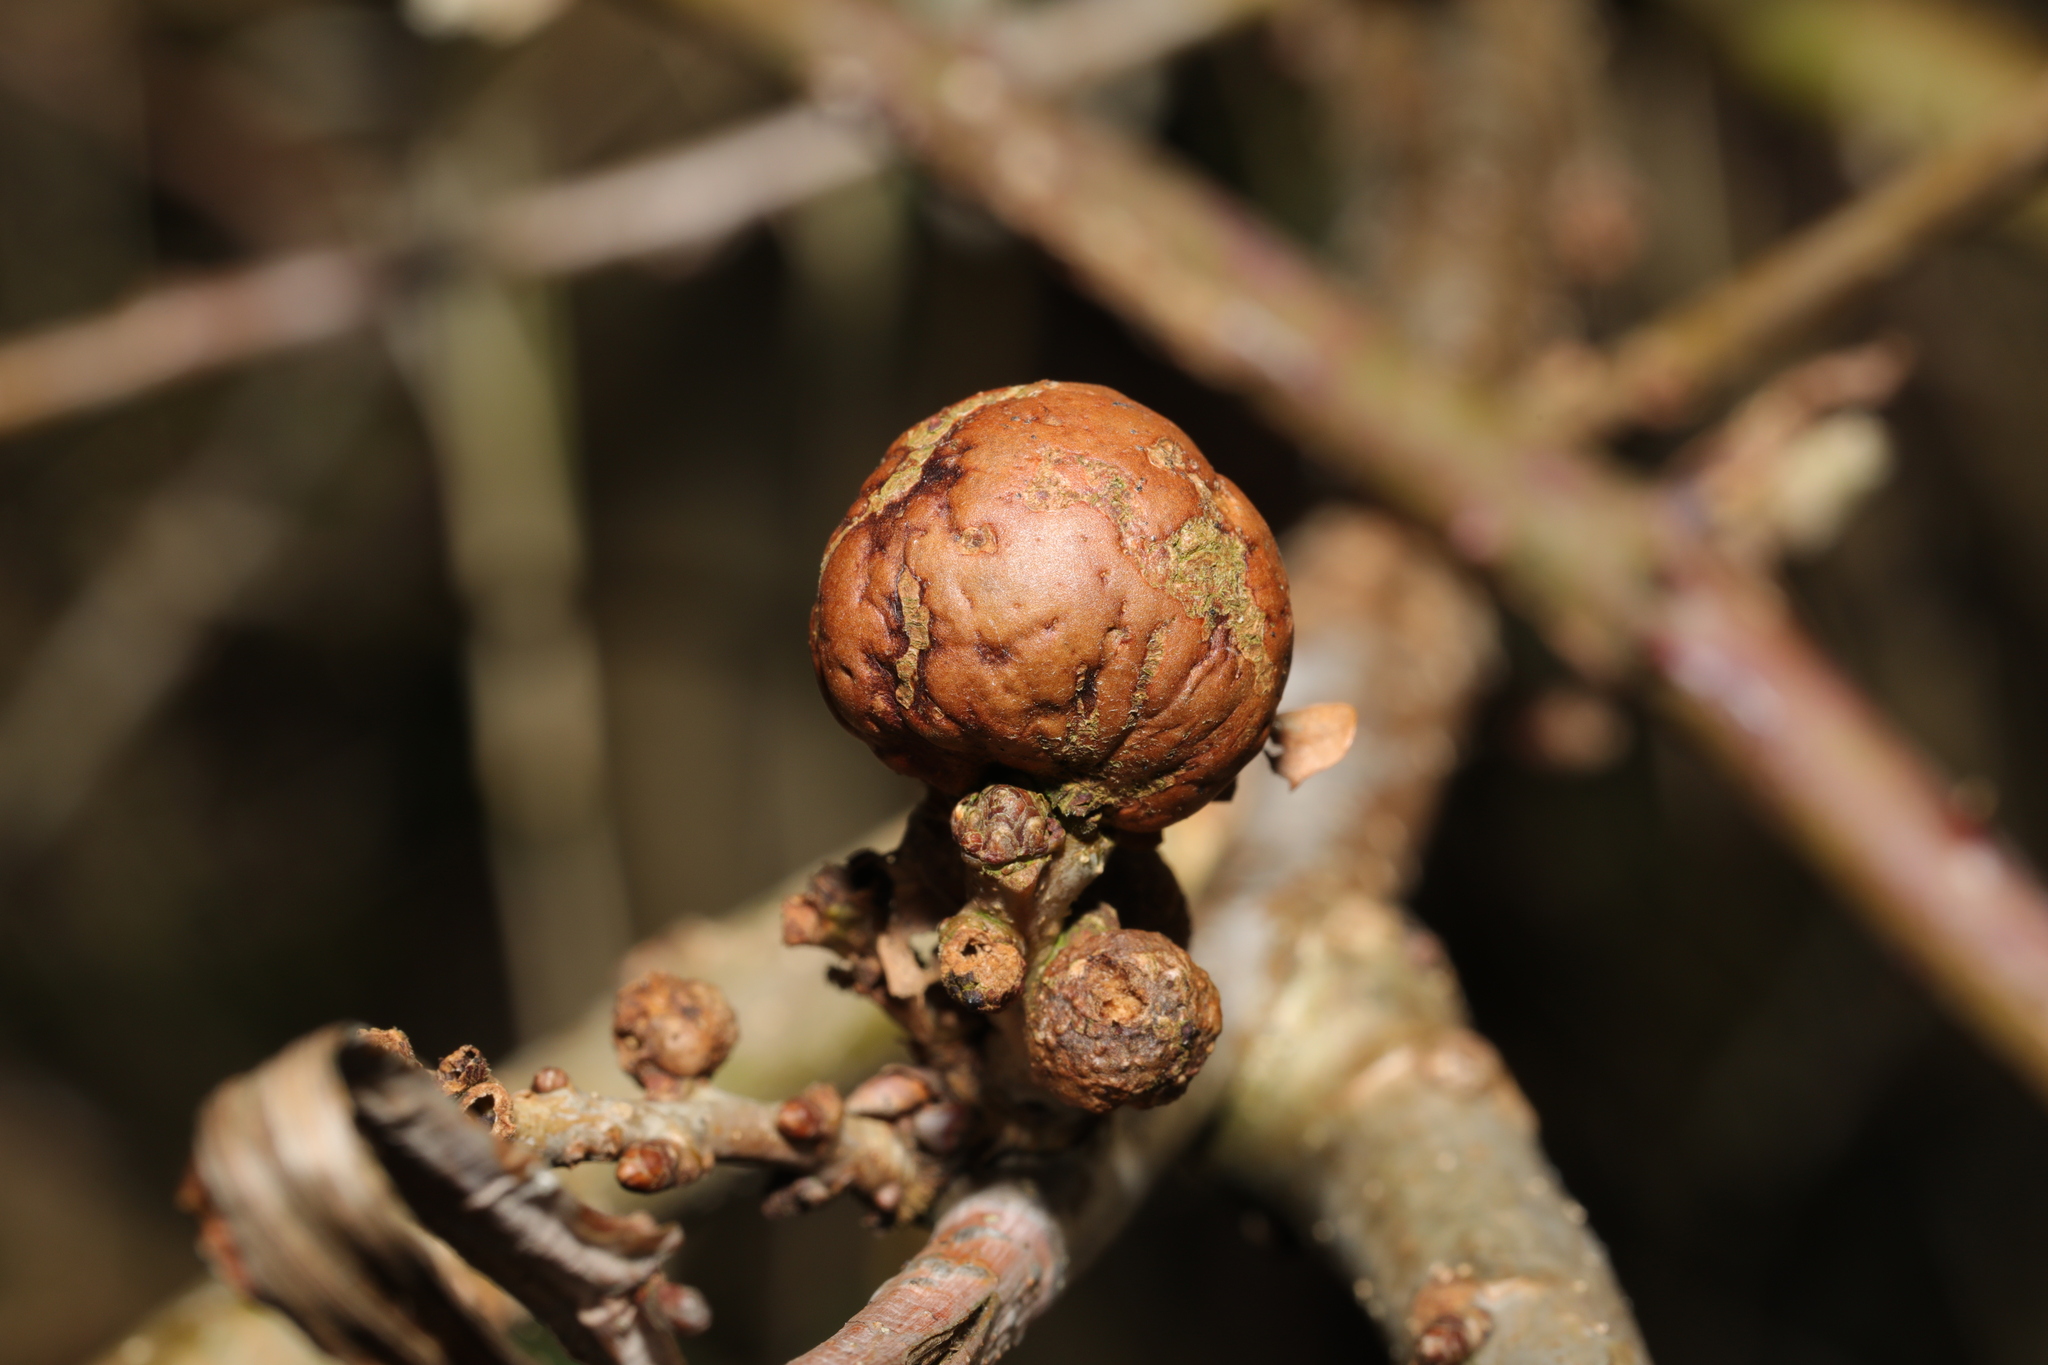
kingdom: Animalia
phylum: Arthropoda
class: Insecta
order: Hymenoptera
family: Cynipidae
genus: Andricus
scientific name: Andricus kollari
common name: Marble gall
